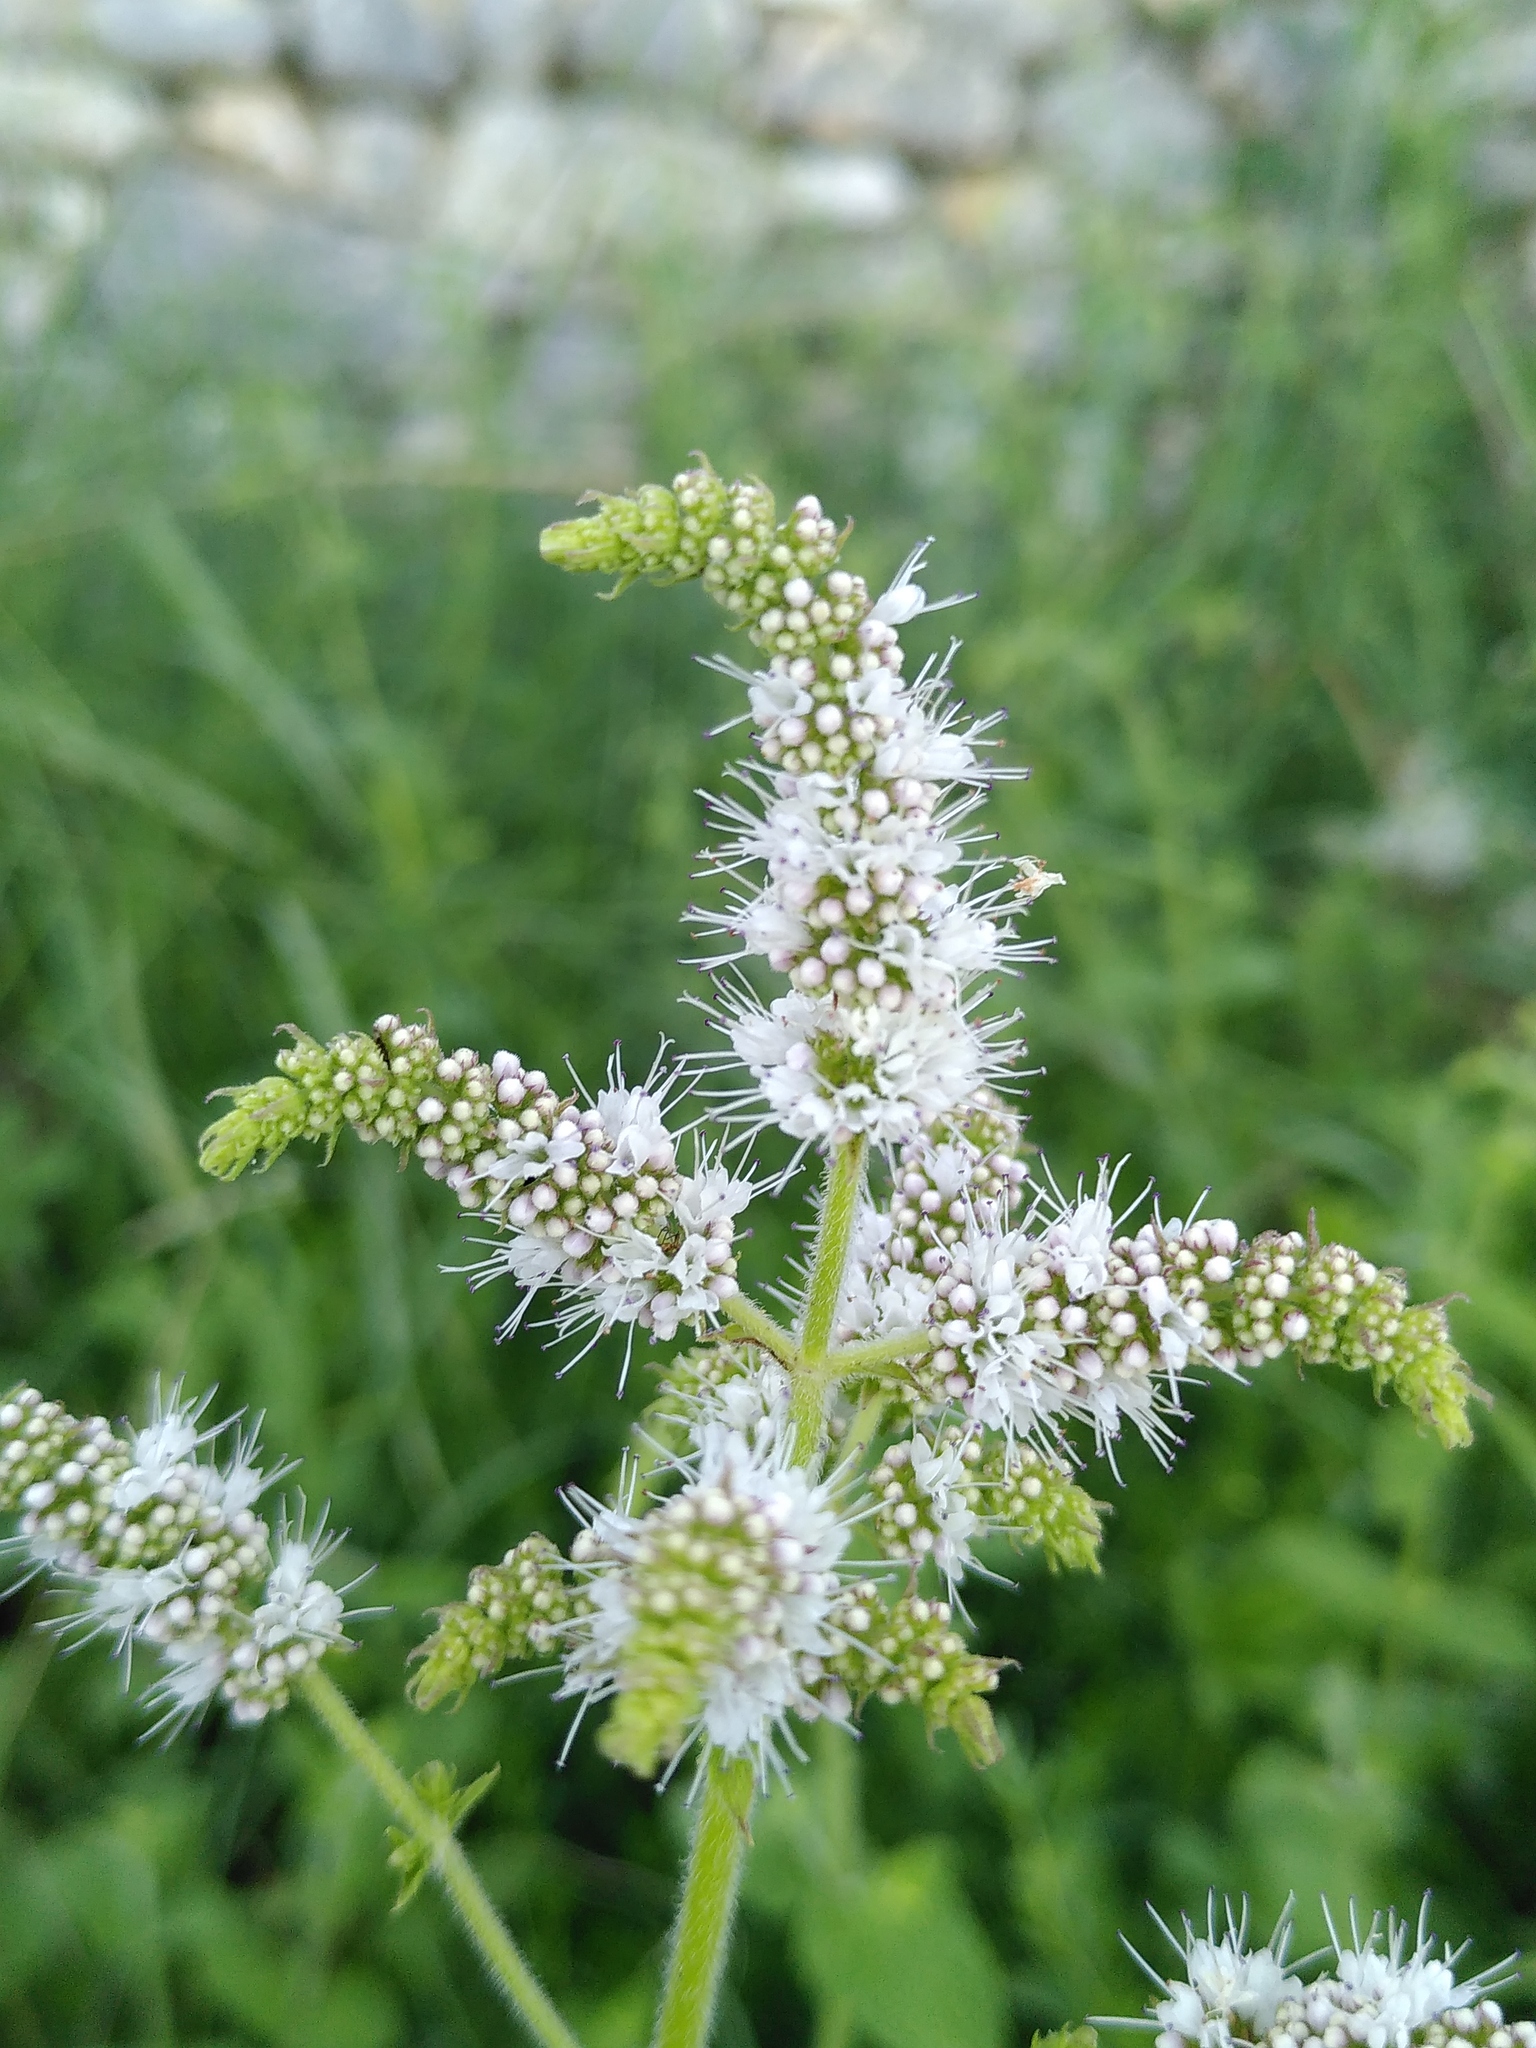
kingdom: Plantae
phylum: Tracheophyta
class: Magnoliopsida
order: Lamiales
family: Lamiaceae
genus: Mentha
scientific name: Mentha suaveolens
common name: Apple mint
